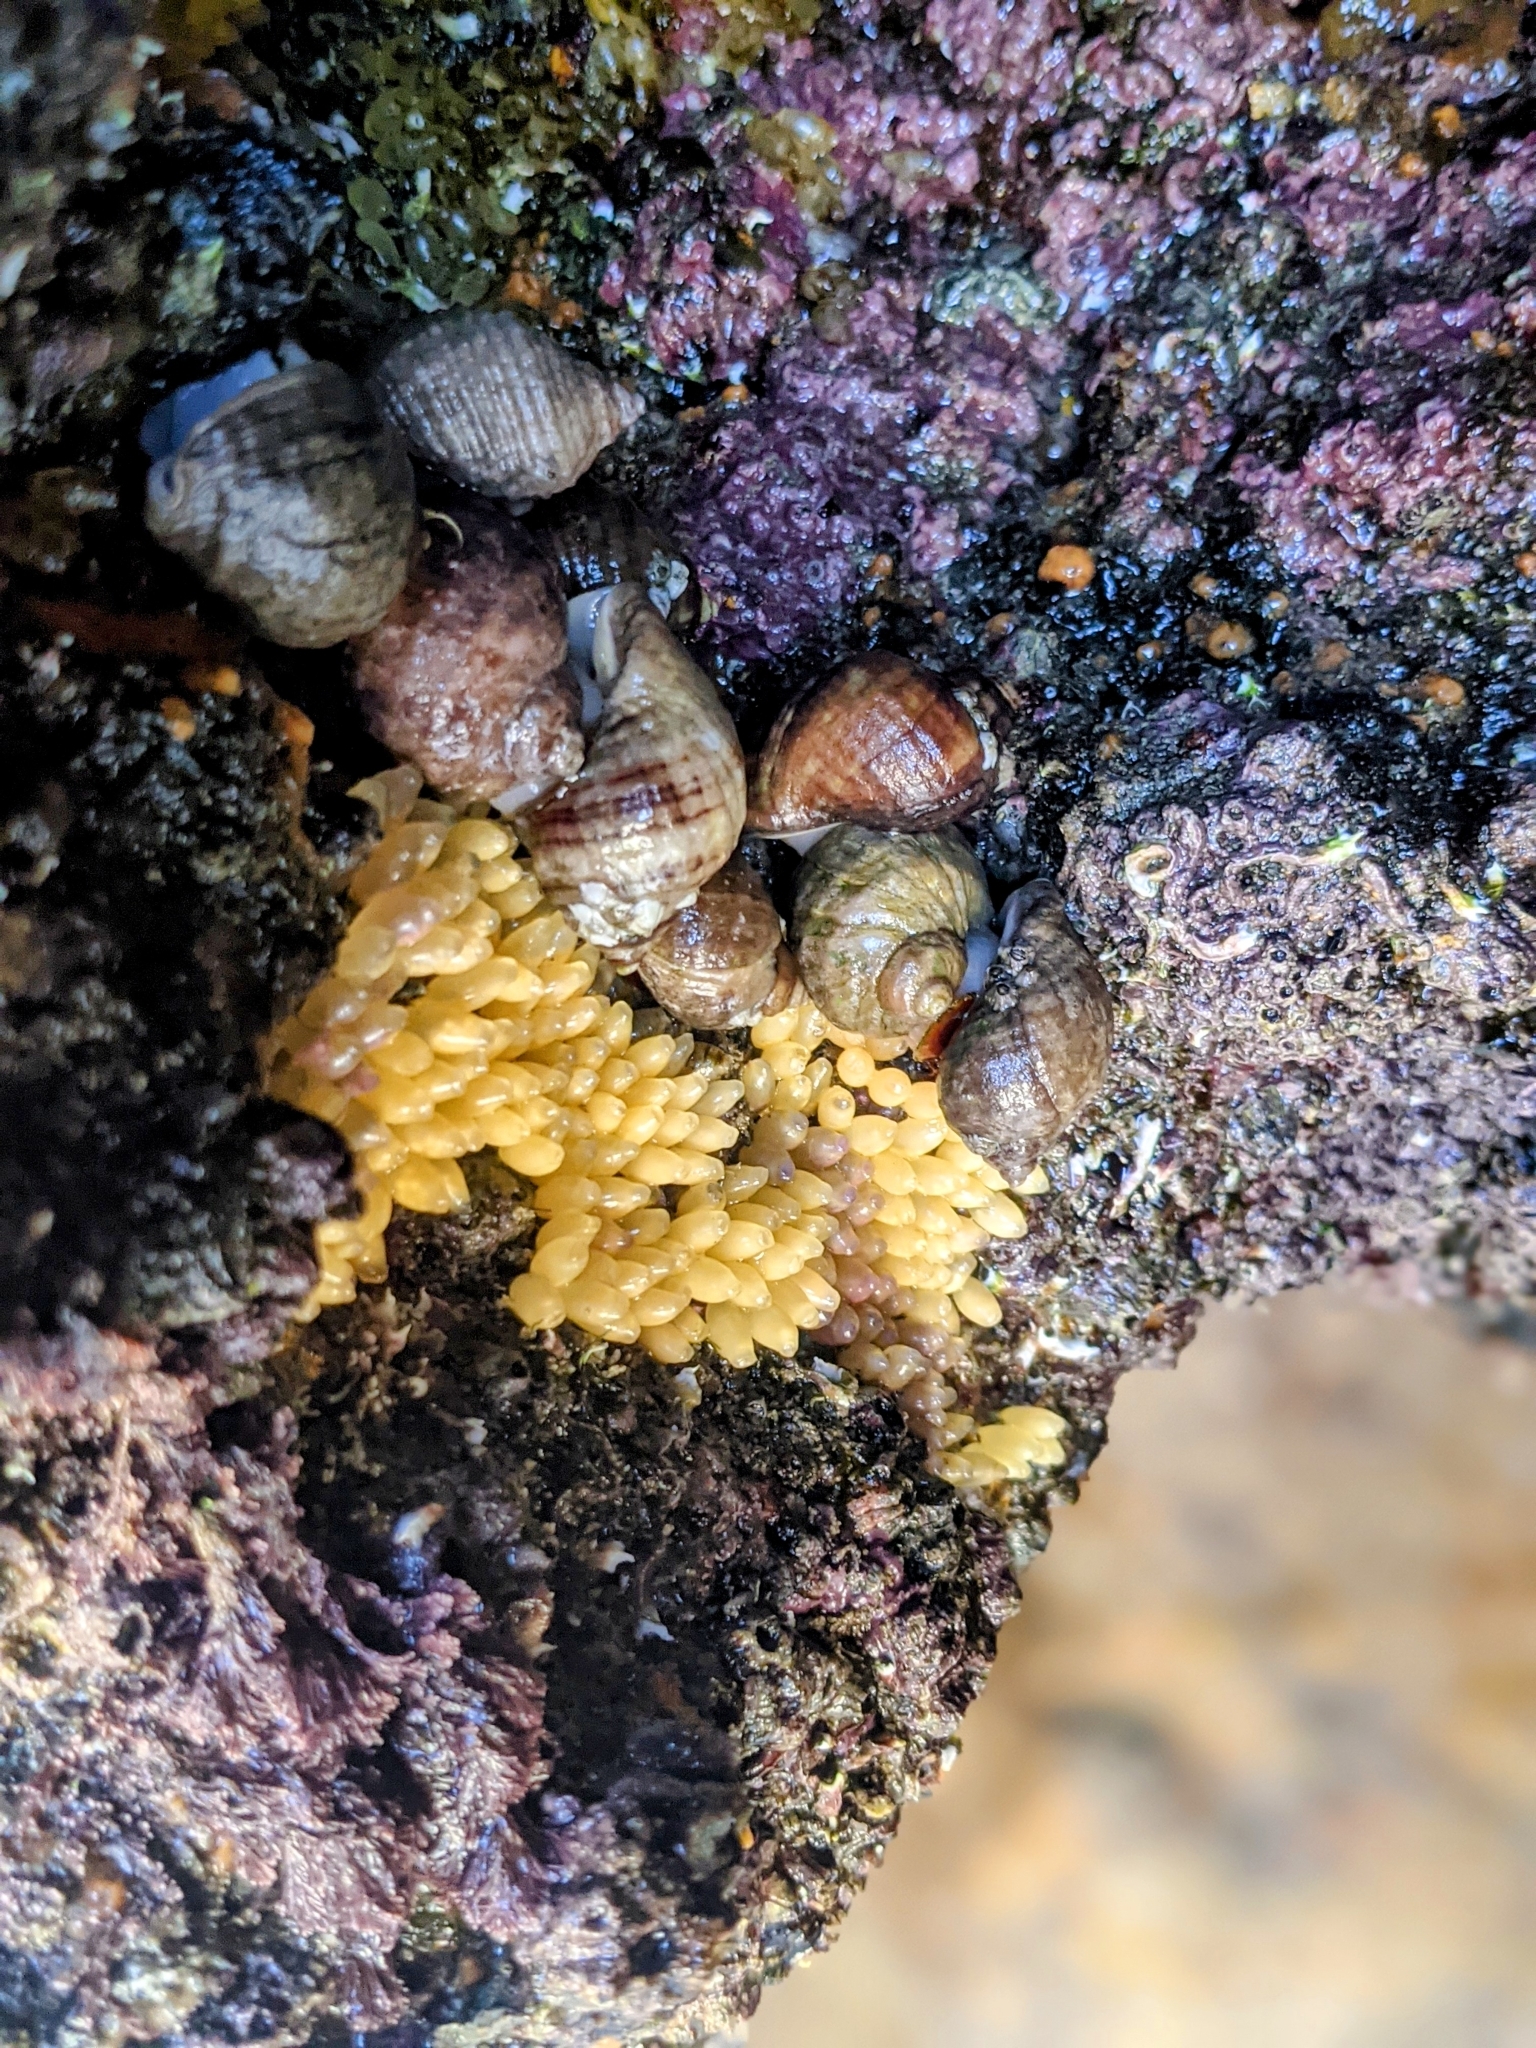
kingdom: Animalia
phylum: Mollusca
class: Gastropoda
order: Neogastropoda
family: Muricidae
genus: Nucella
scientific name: Nucella lapillus
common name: Dog whelk
